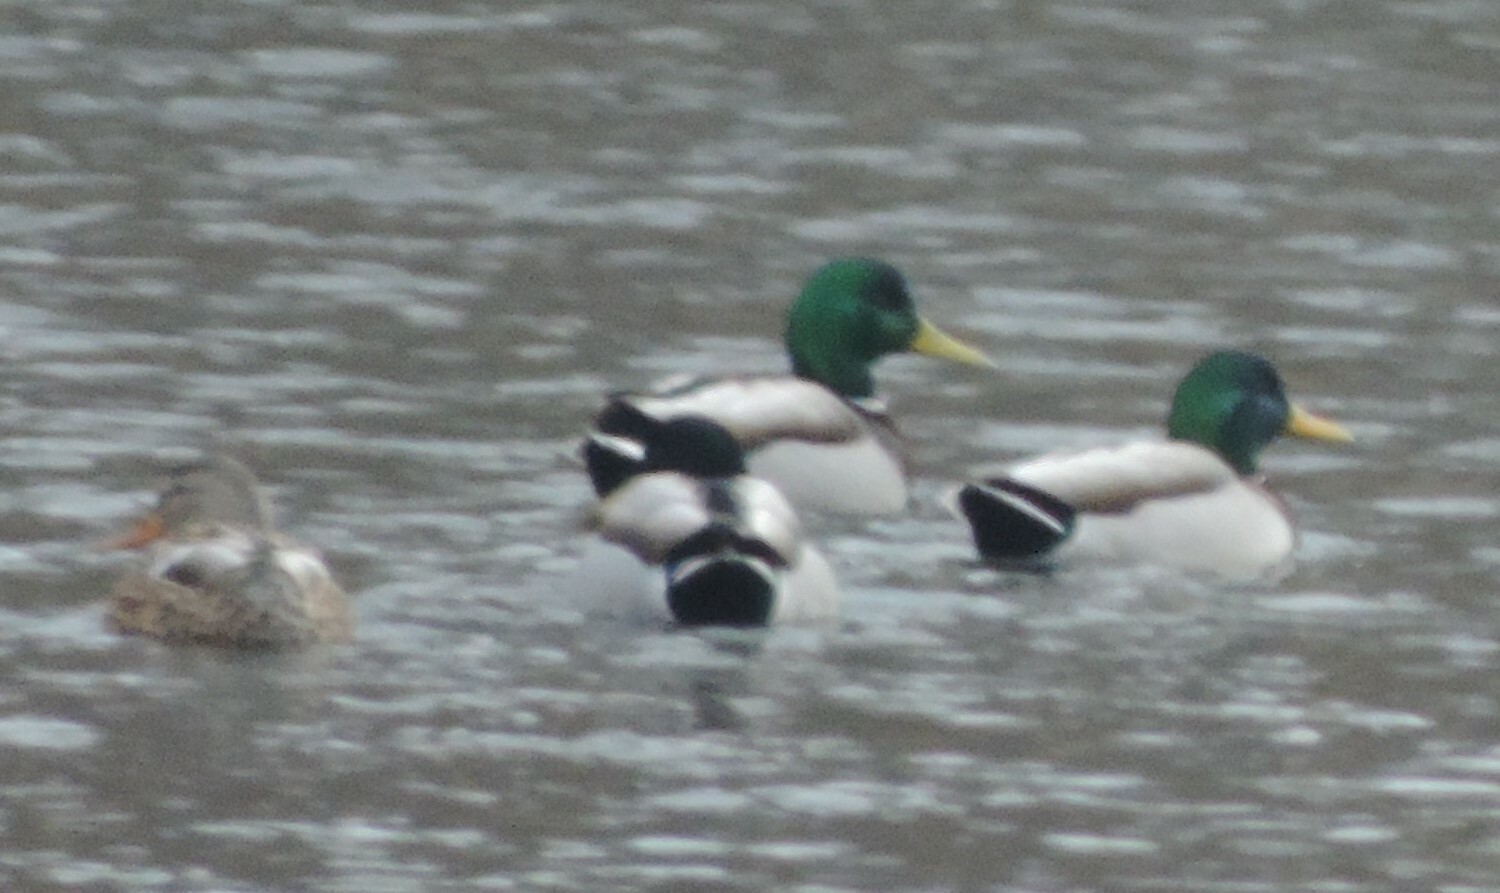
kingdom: Animalia
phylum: Chordata
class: Aves
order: Anseriformes
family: Anatidae
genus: Anas
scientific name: Anas platyrhynchos
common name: Mallard
